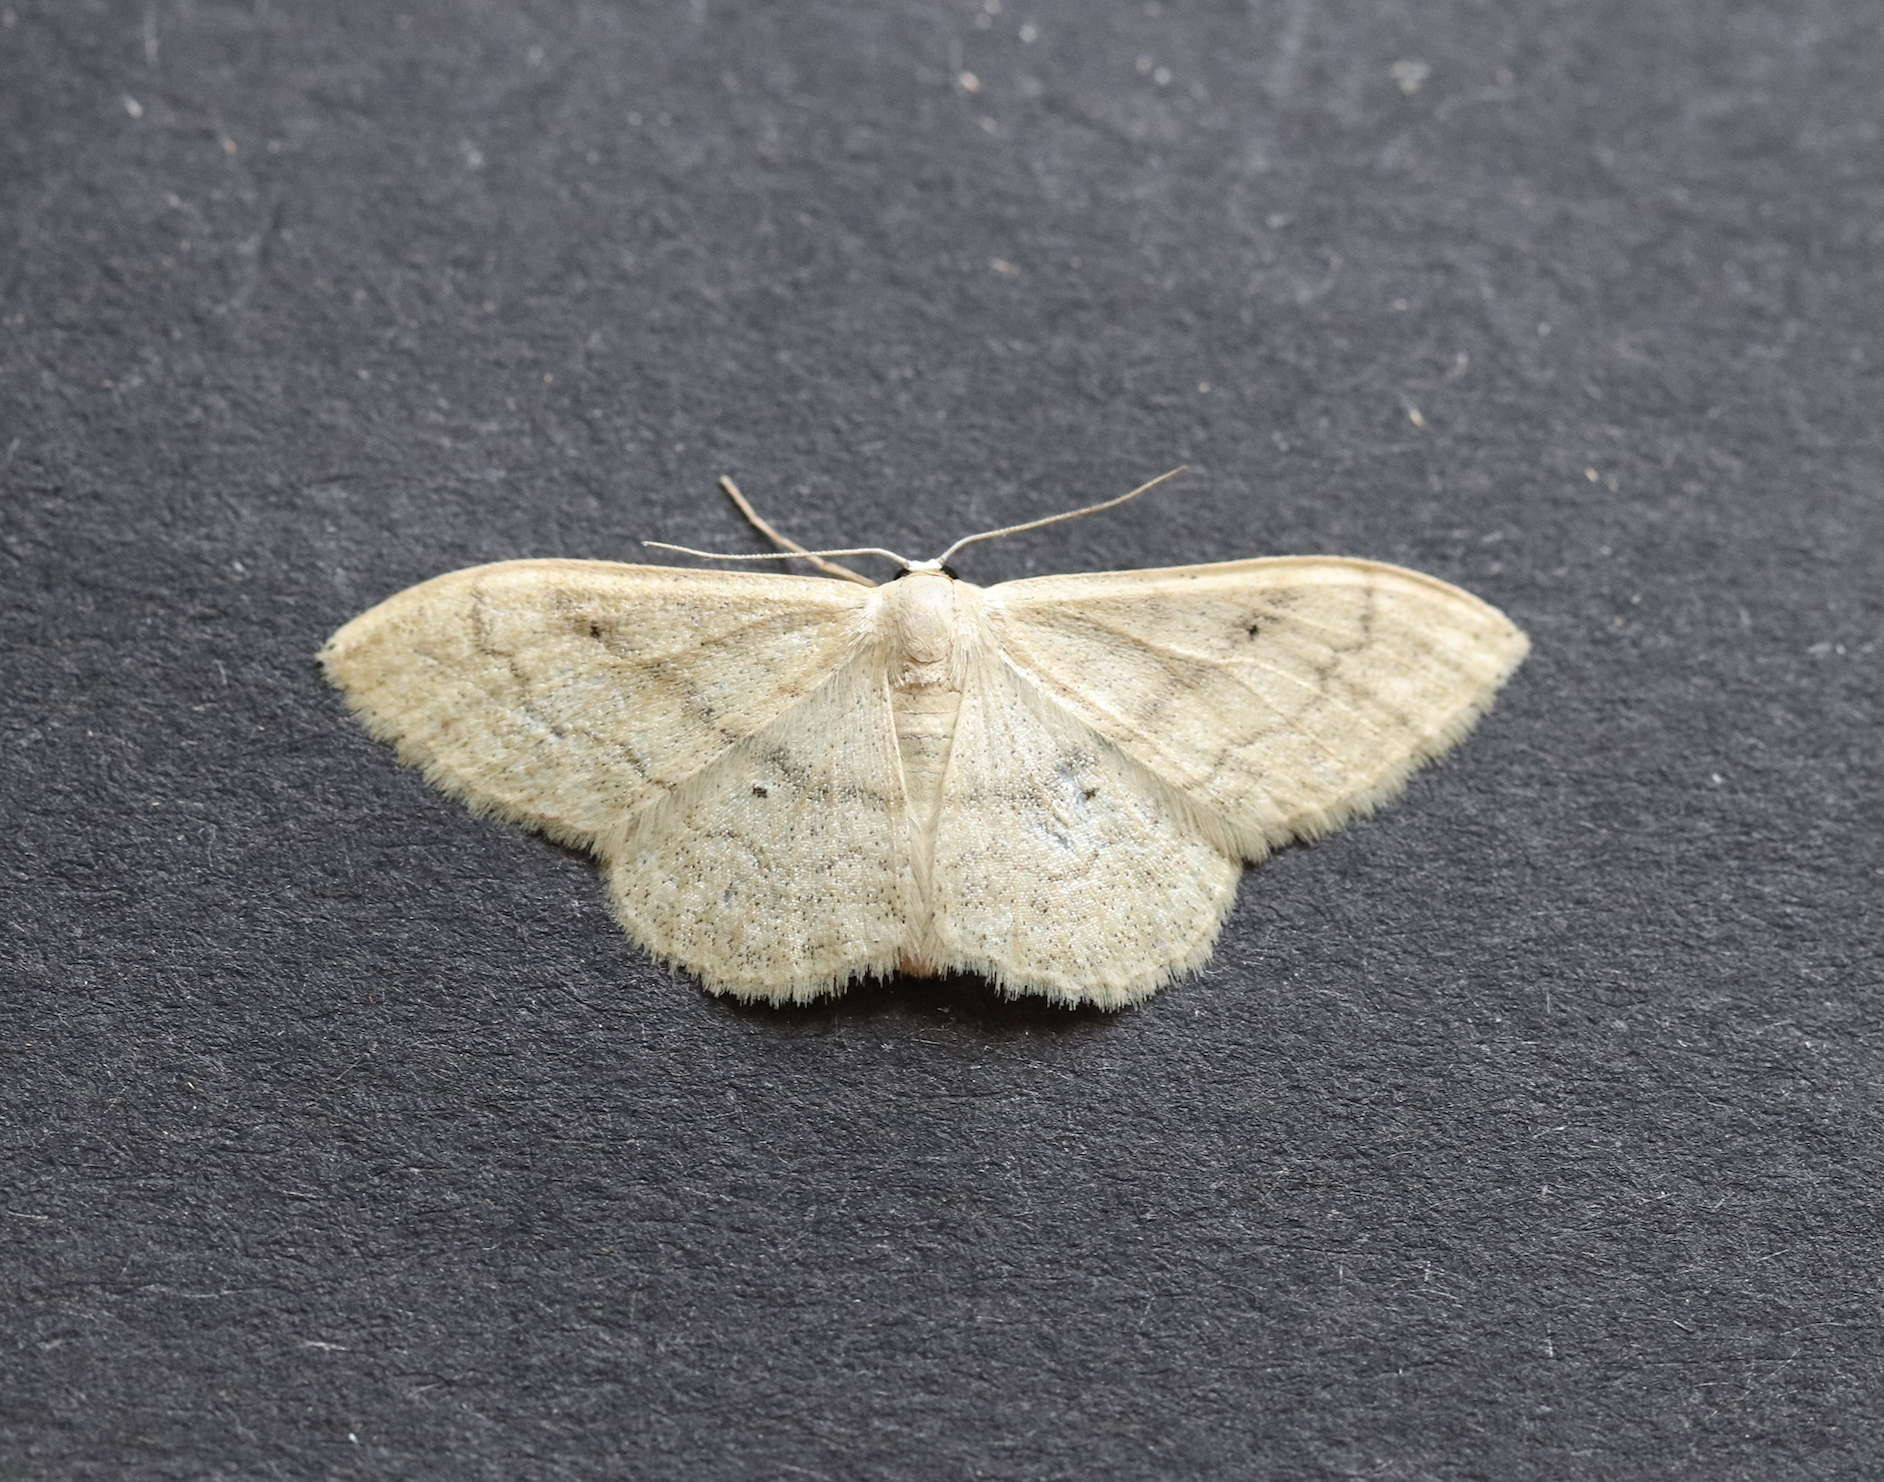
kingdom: Animalia
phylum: Arthropoda
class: Insecta
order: Lepidoptera
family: Geometridae
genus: Idaea
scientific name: Idaea maritimaria
